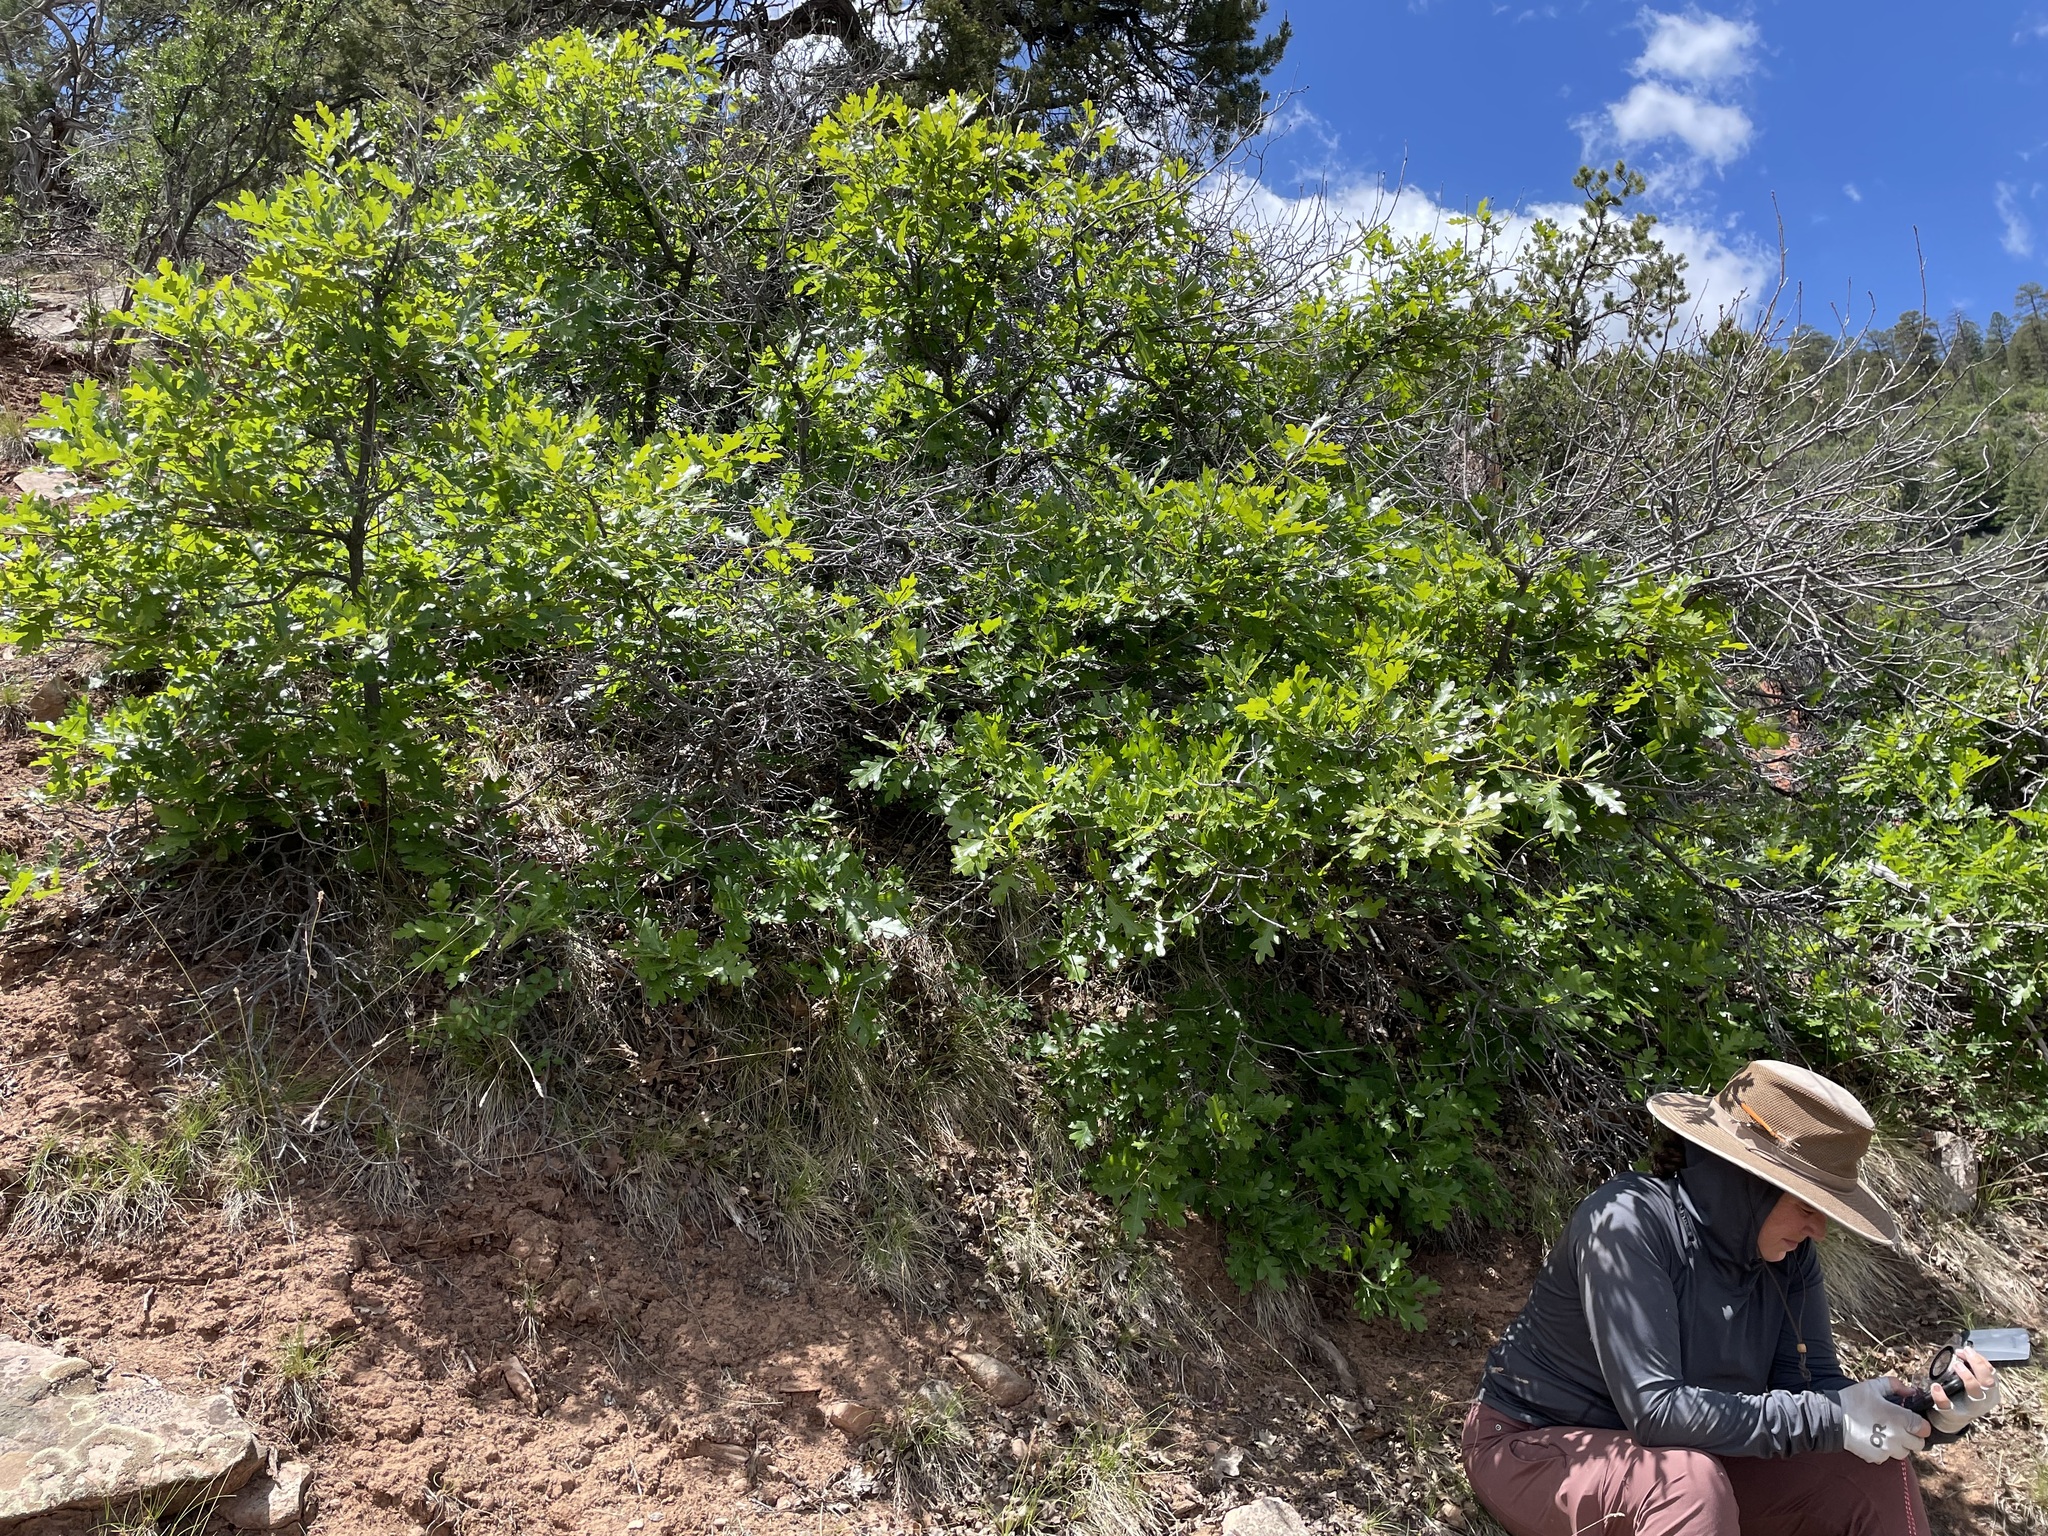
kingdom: Plantae
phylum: Tracheophyta
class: Magnoliopsida
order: Fagales
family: Fagaceae
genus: Quercus
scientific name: Quercus gambelii
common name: Gambel oak
